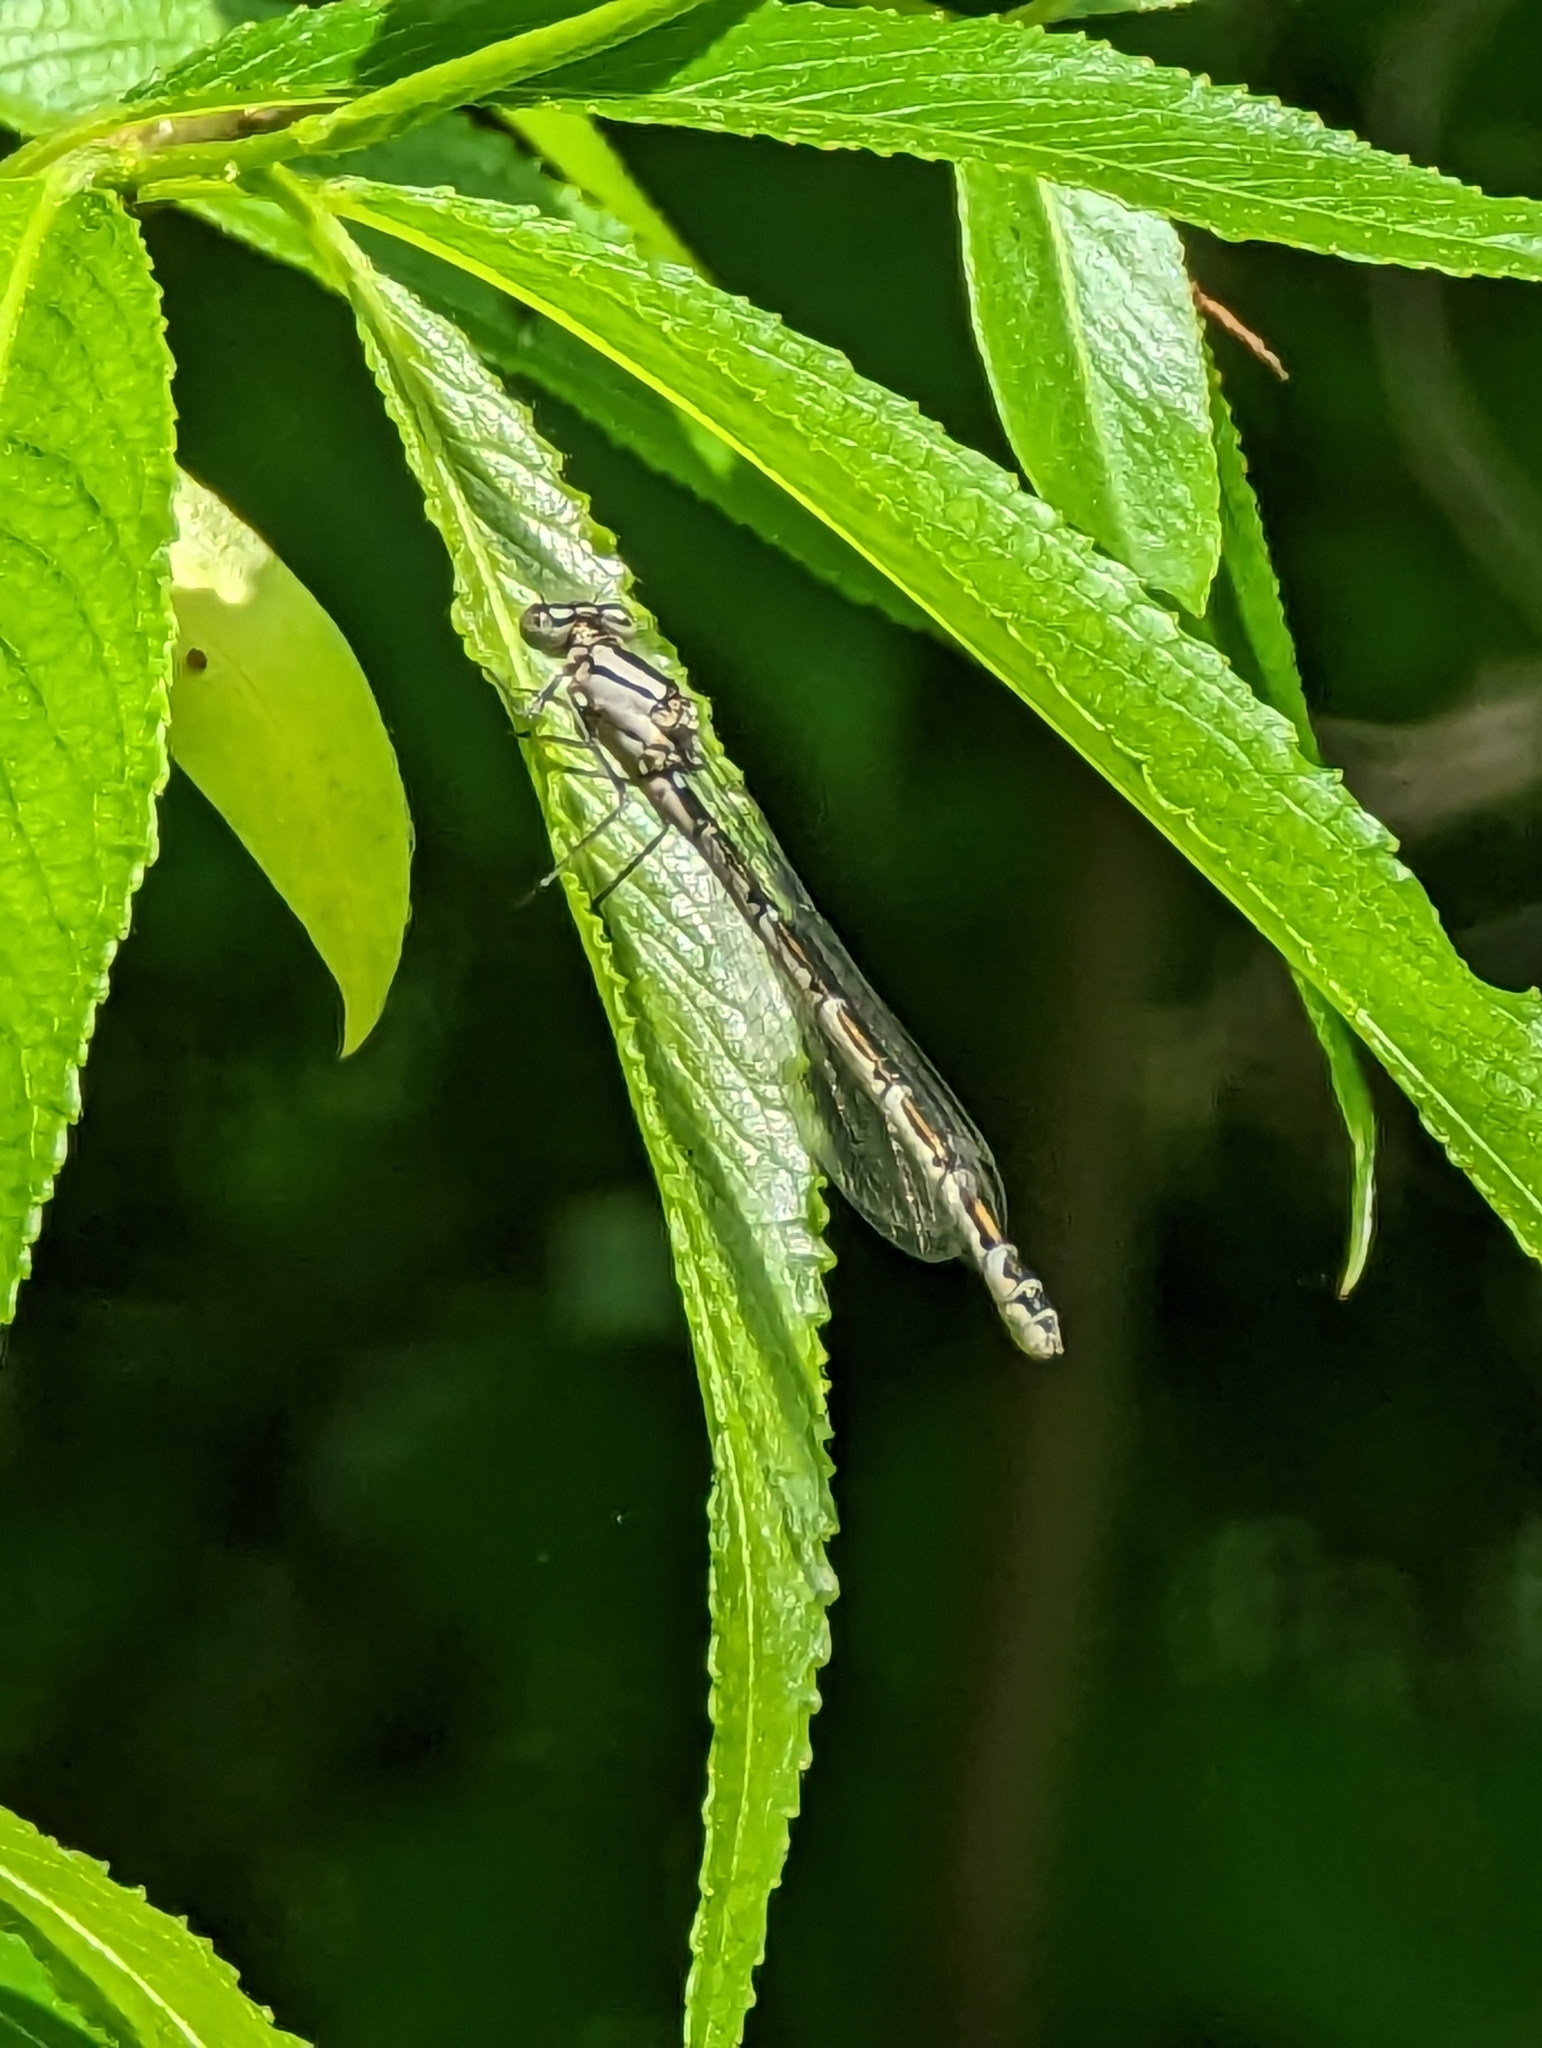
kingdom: Animalia
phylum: Arthropoda
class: Insecta
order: Odonata
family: Coenagrionidae
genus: Enallagma
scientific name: Enallagma cyathigerum
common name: Common blue damselfly
